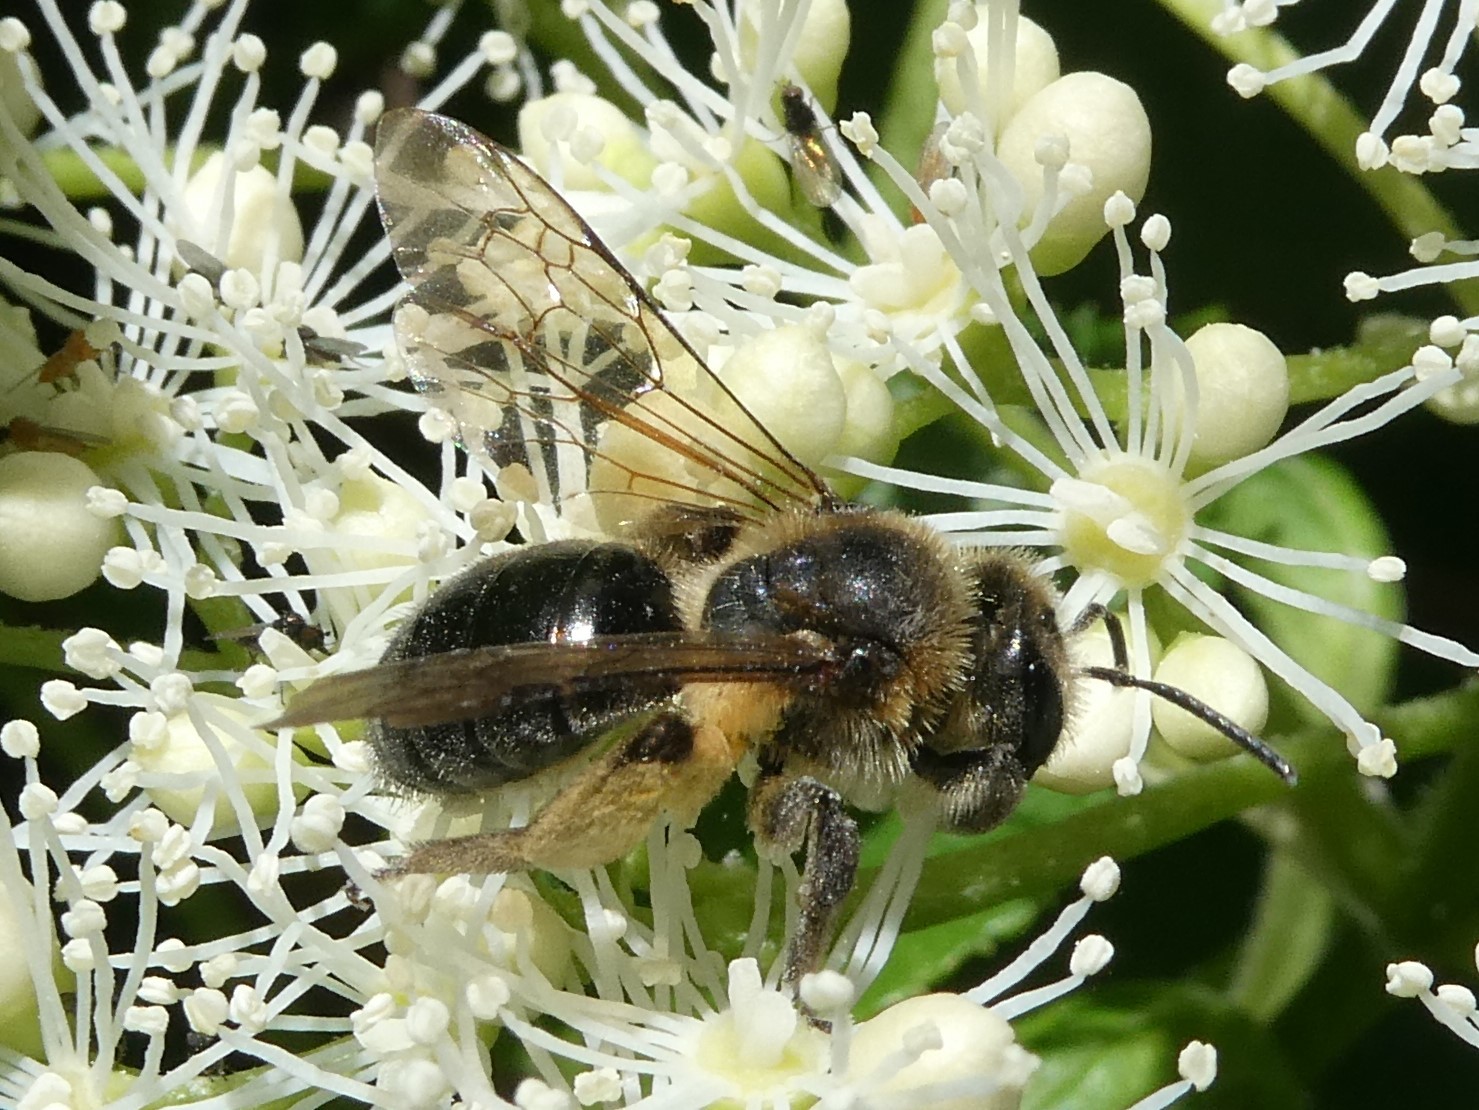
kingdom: Animalia
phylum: Arthropoda
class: Insecta
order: Hymenoptera
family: Andrenidae
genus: Andrena
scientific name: Andrena crataegi
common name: Hawthorn mining bee
